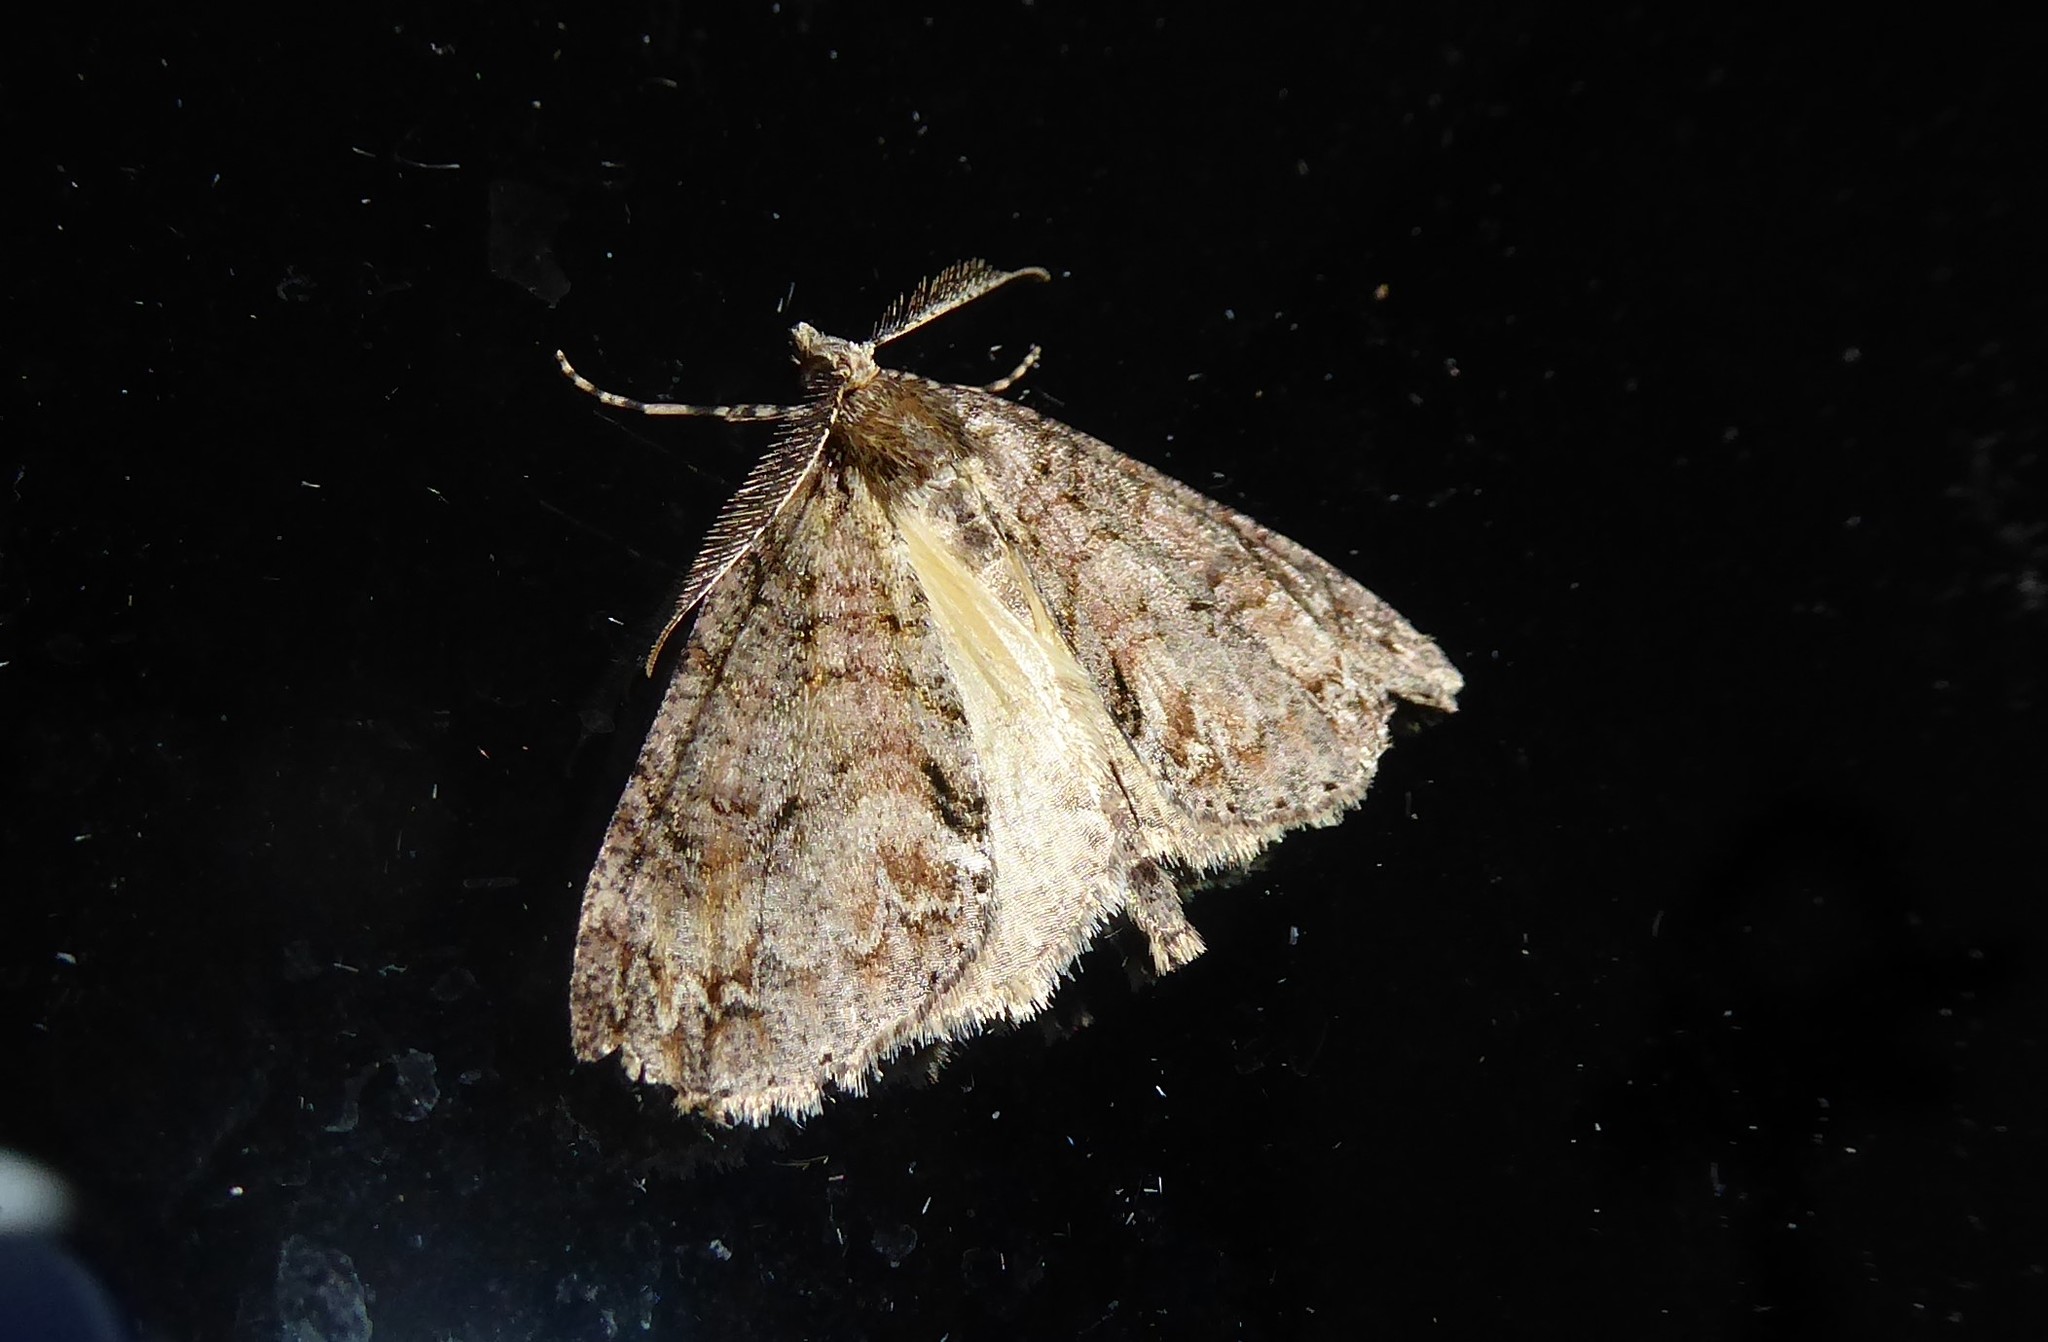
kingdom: Animalia
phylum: Arthropoda
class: Insecta
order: Lepidoptera
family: Geometridae
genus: Pseudocoremia
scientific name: Pseudocoremia suavis
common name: Common forest looper
